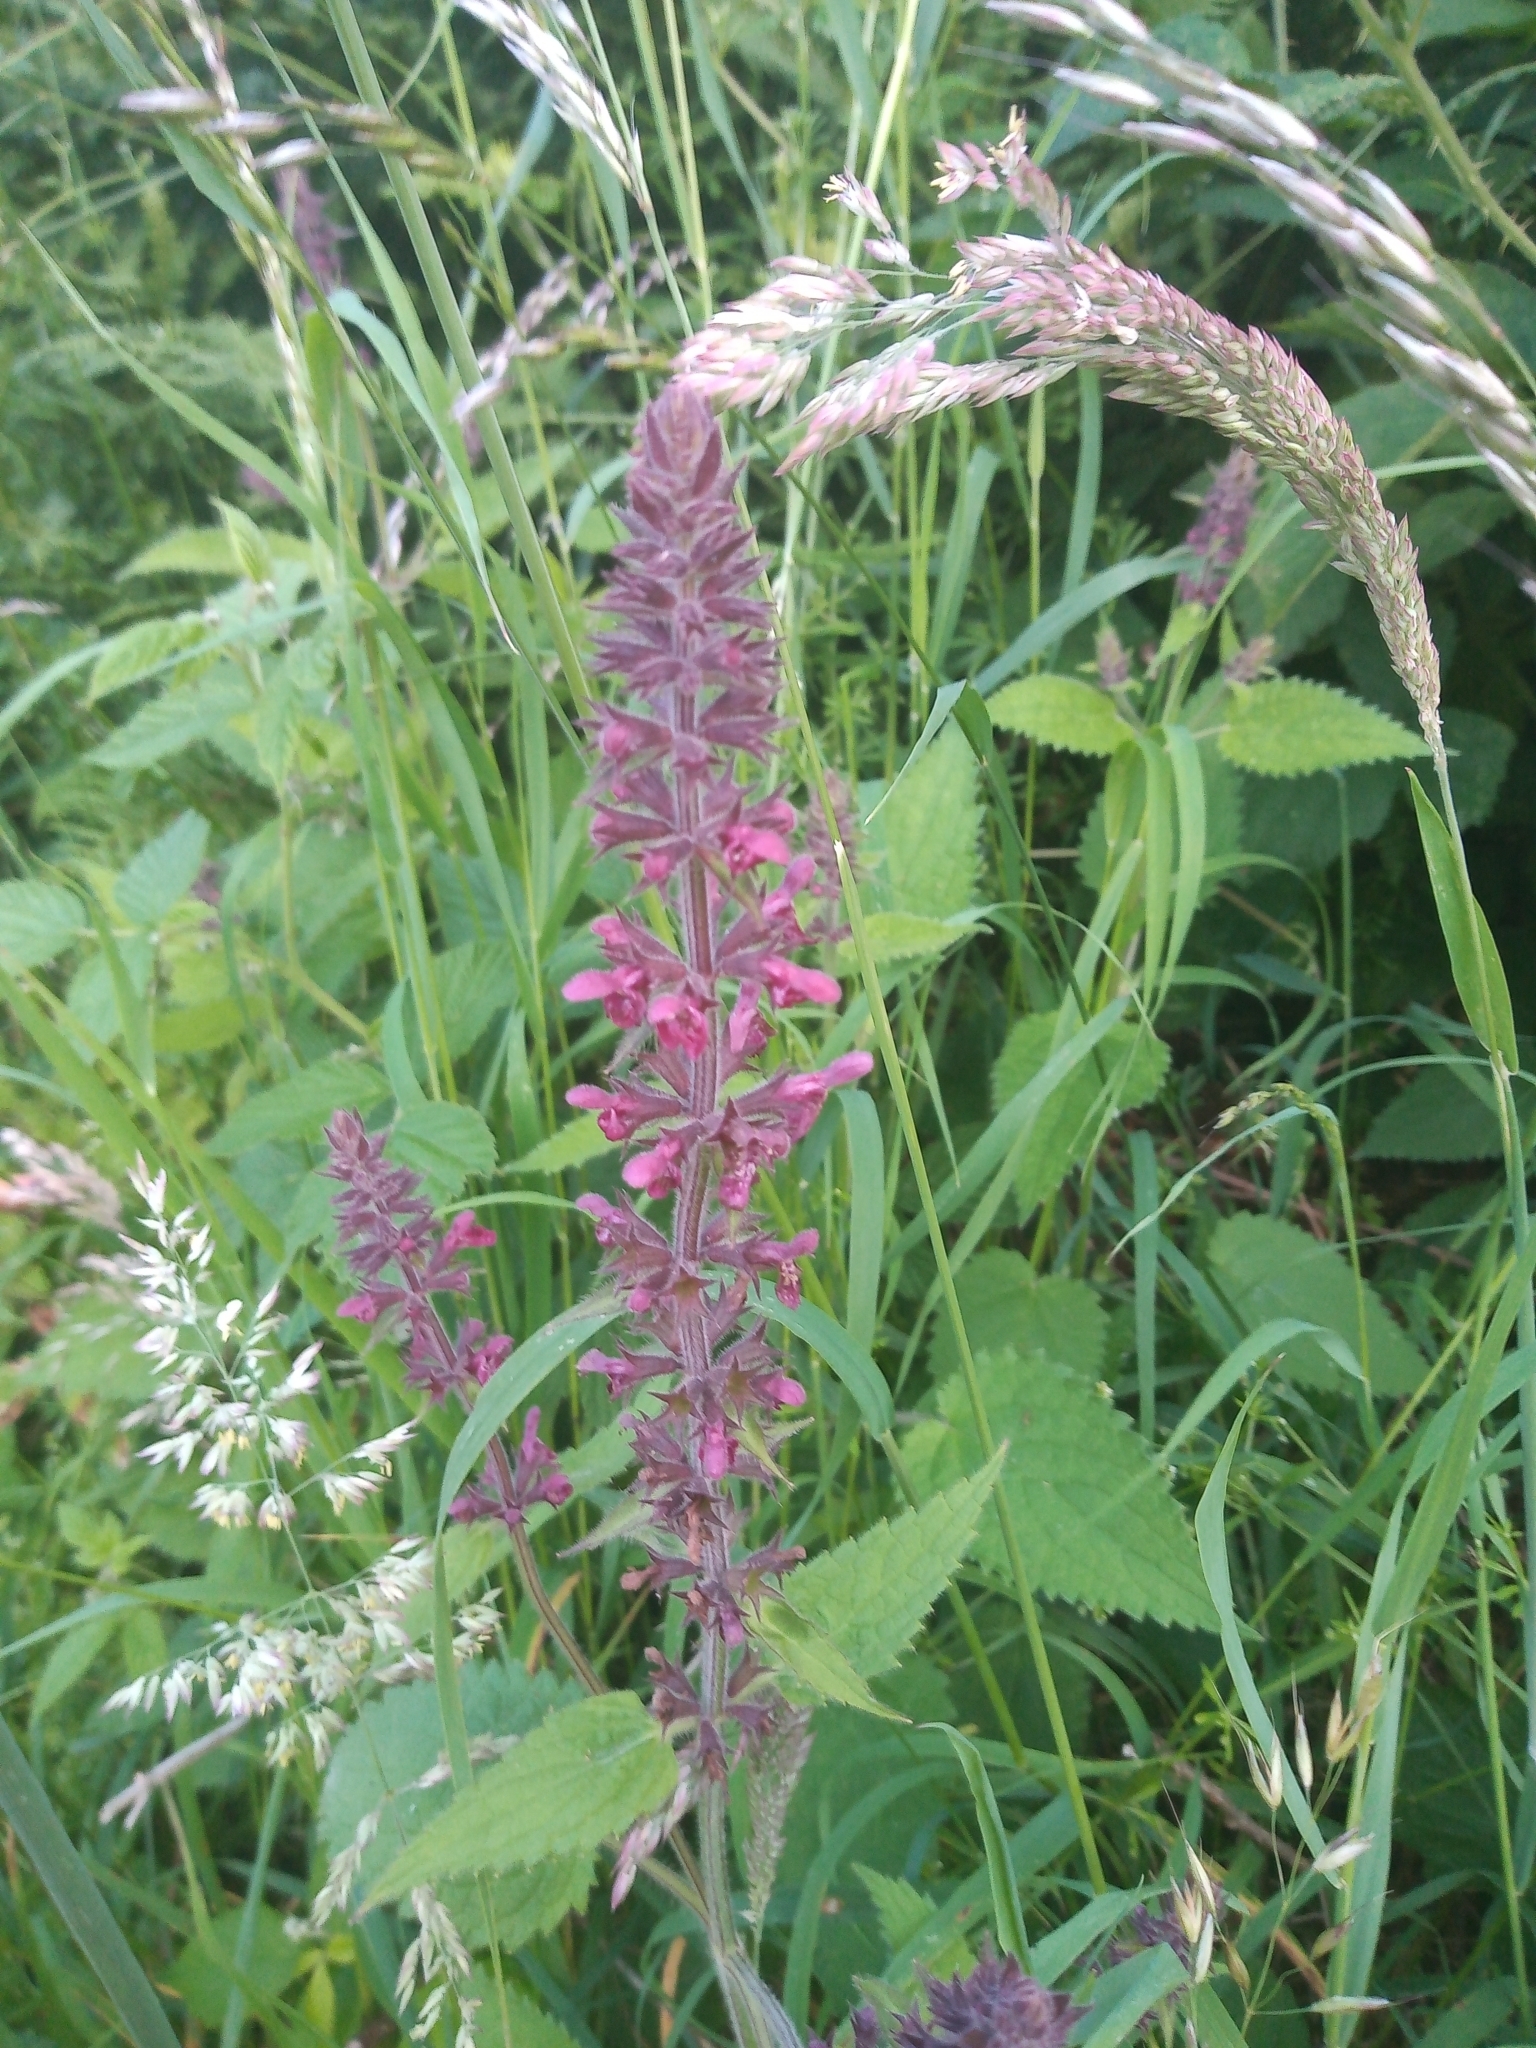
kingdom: Plantae
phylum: Tracheophyta
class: Magnoliopsida
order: Lamiales
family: Lamiaceae
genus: Stachys
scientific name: Stachys sylvatica
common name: Hedge woundwort
